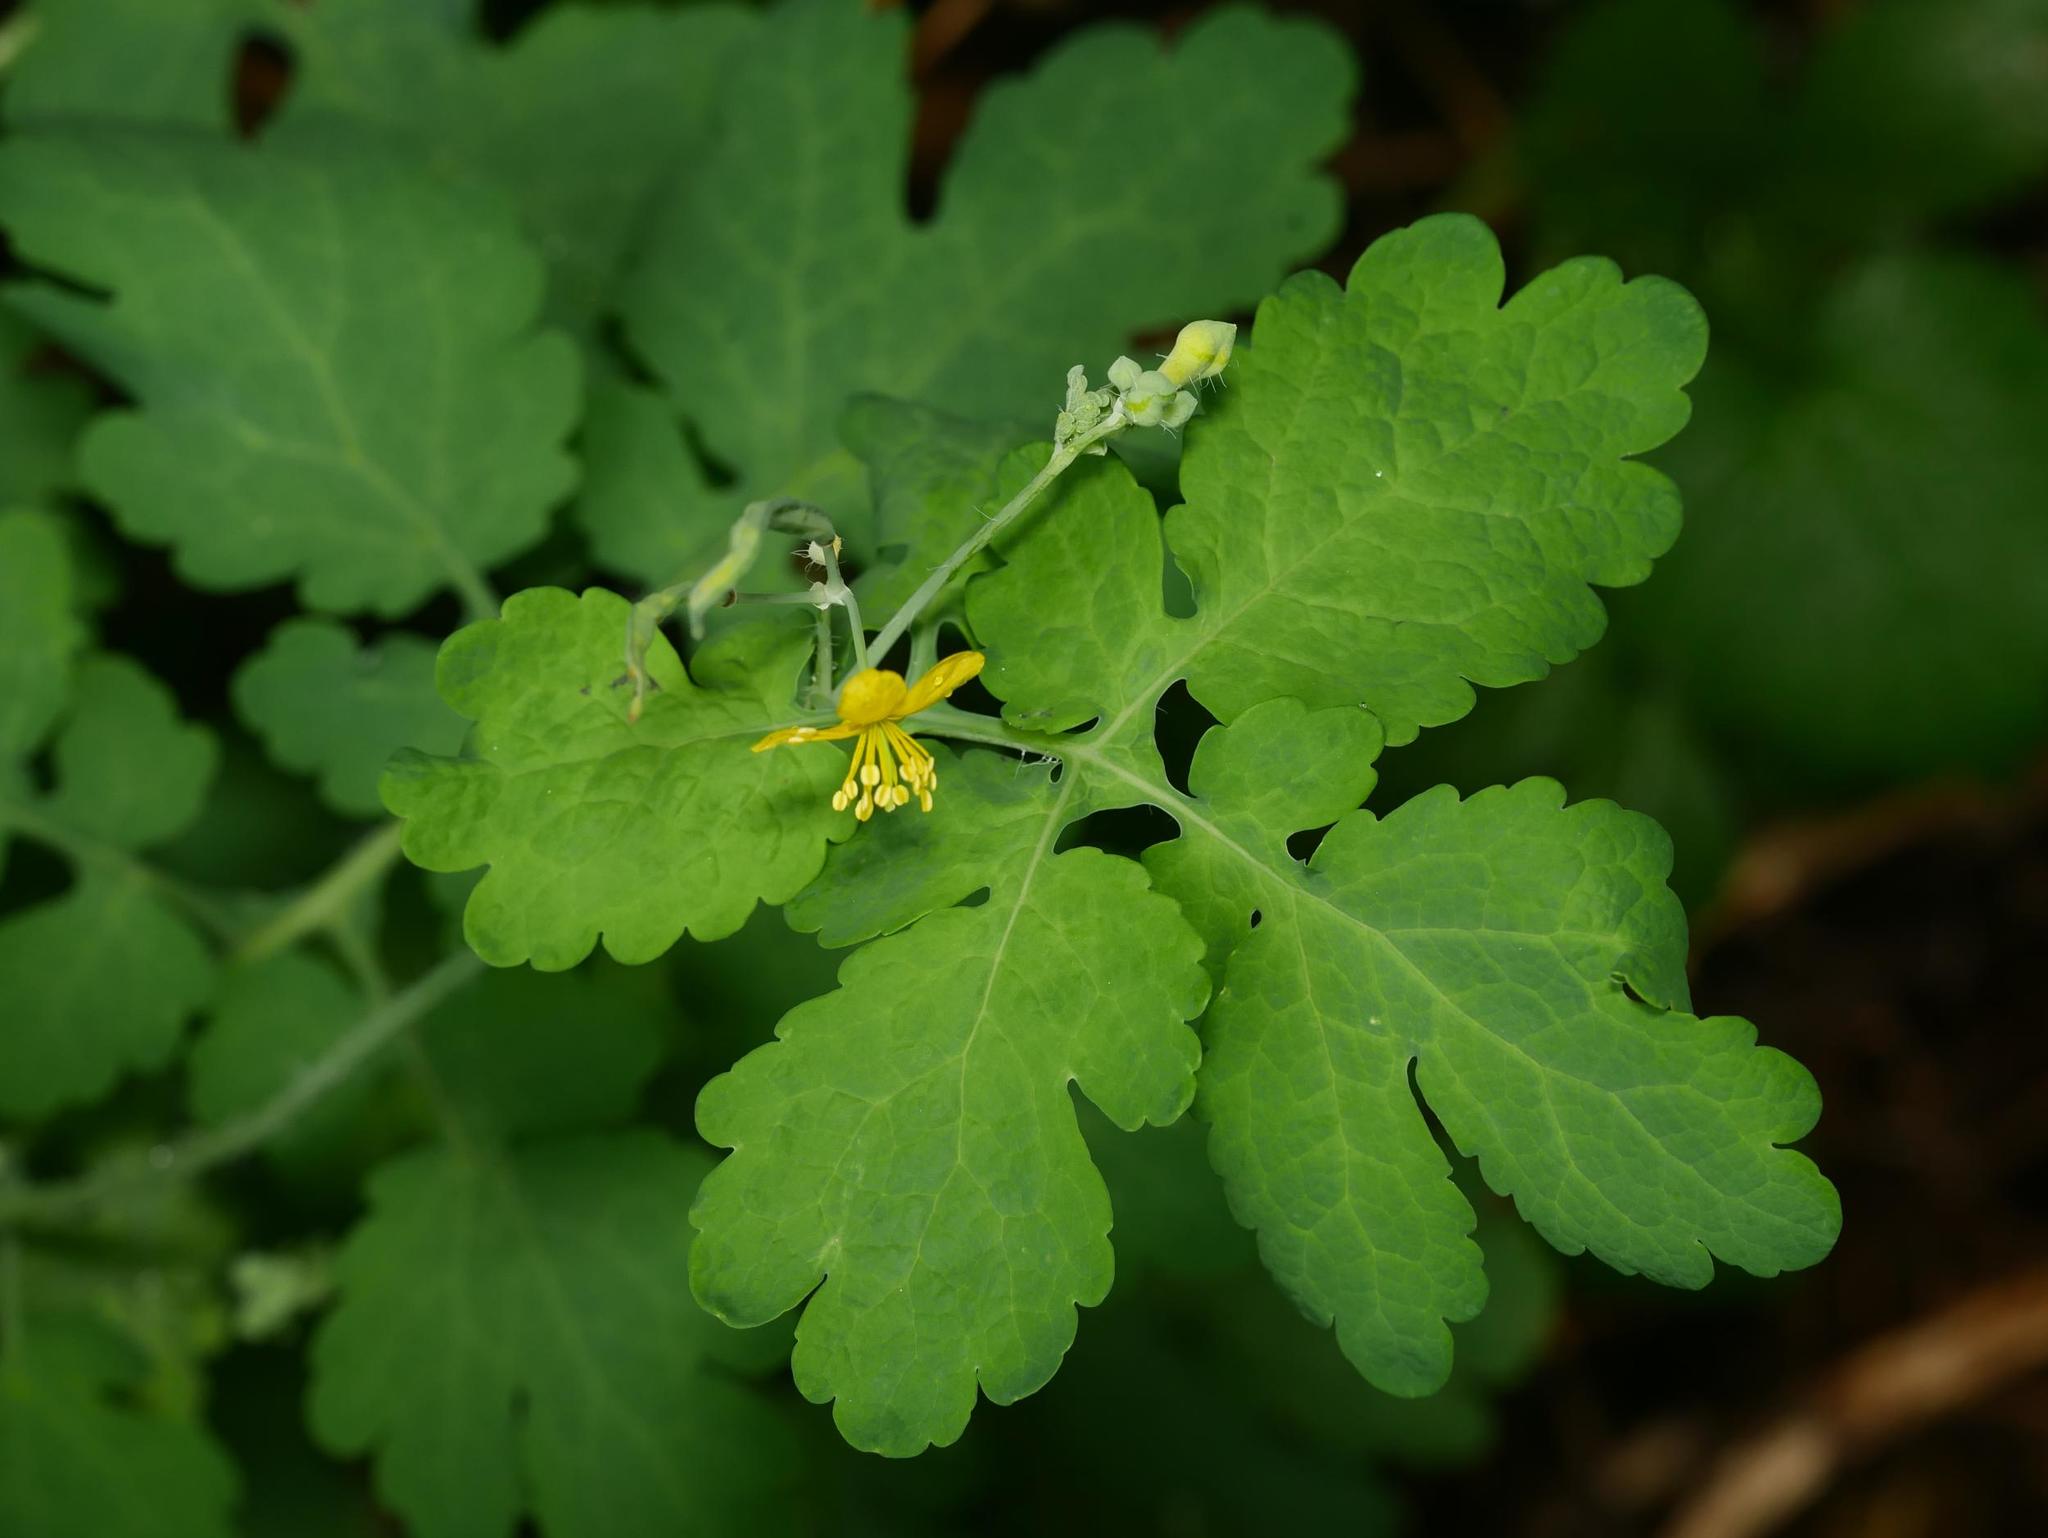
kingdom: Plantae
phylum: Tracheophyta
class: Magnoliopsida
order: Ranunculales
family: Papaveraceae
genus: Chelidonium
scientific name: Chelidonium majus
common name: Greater celandine
